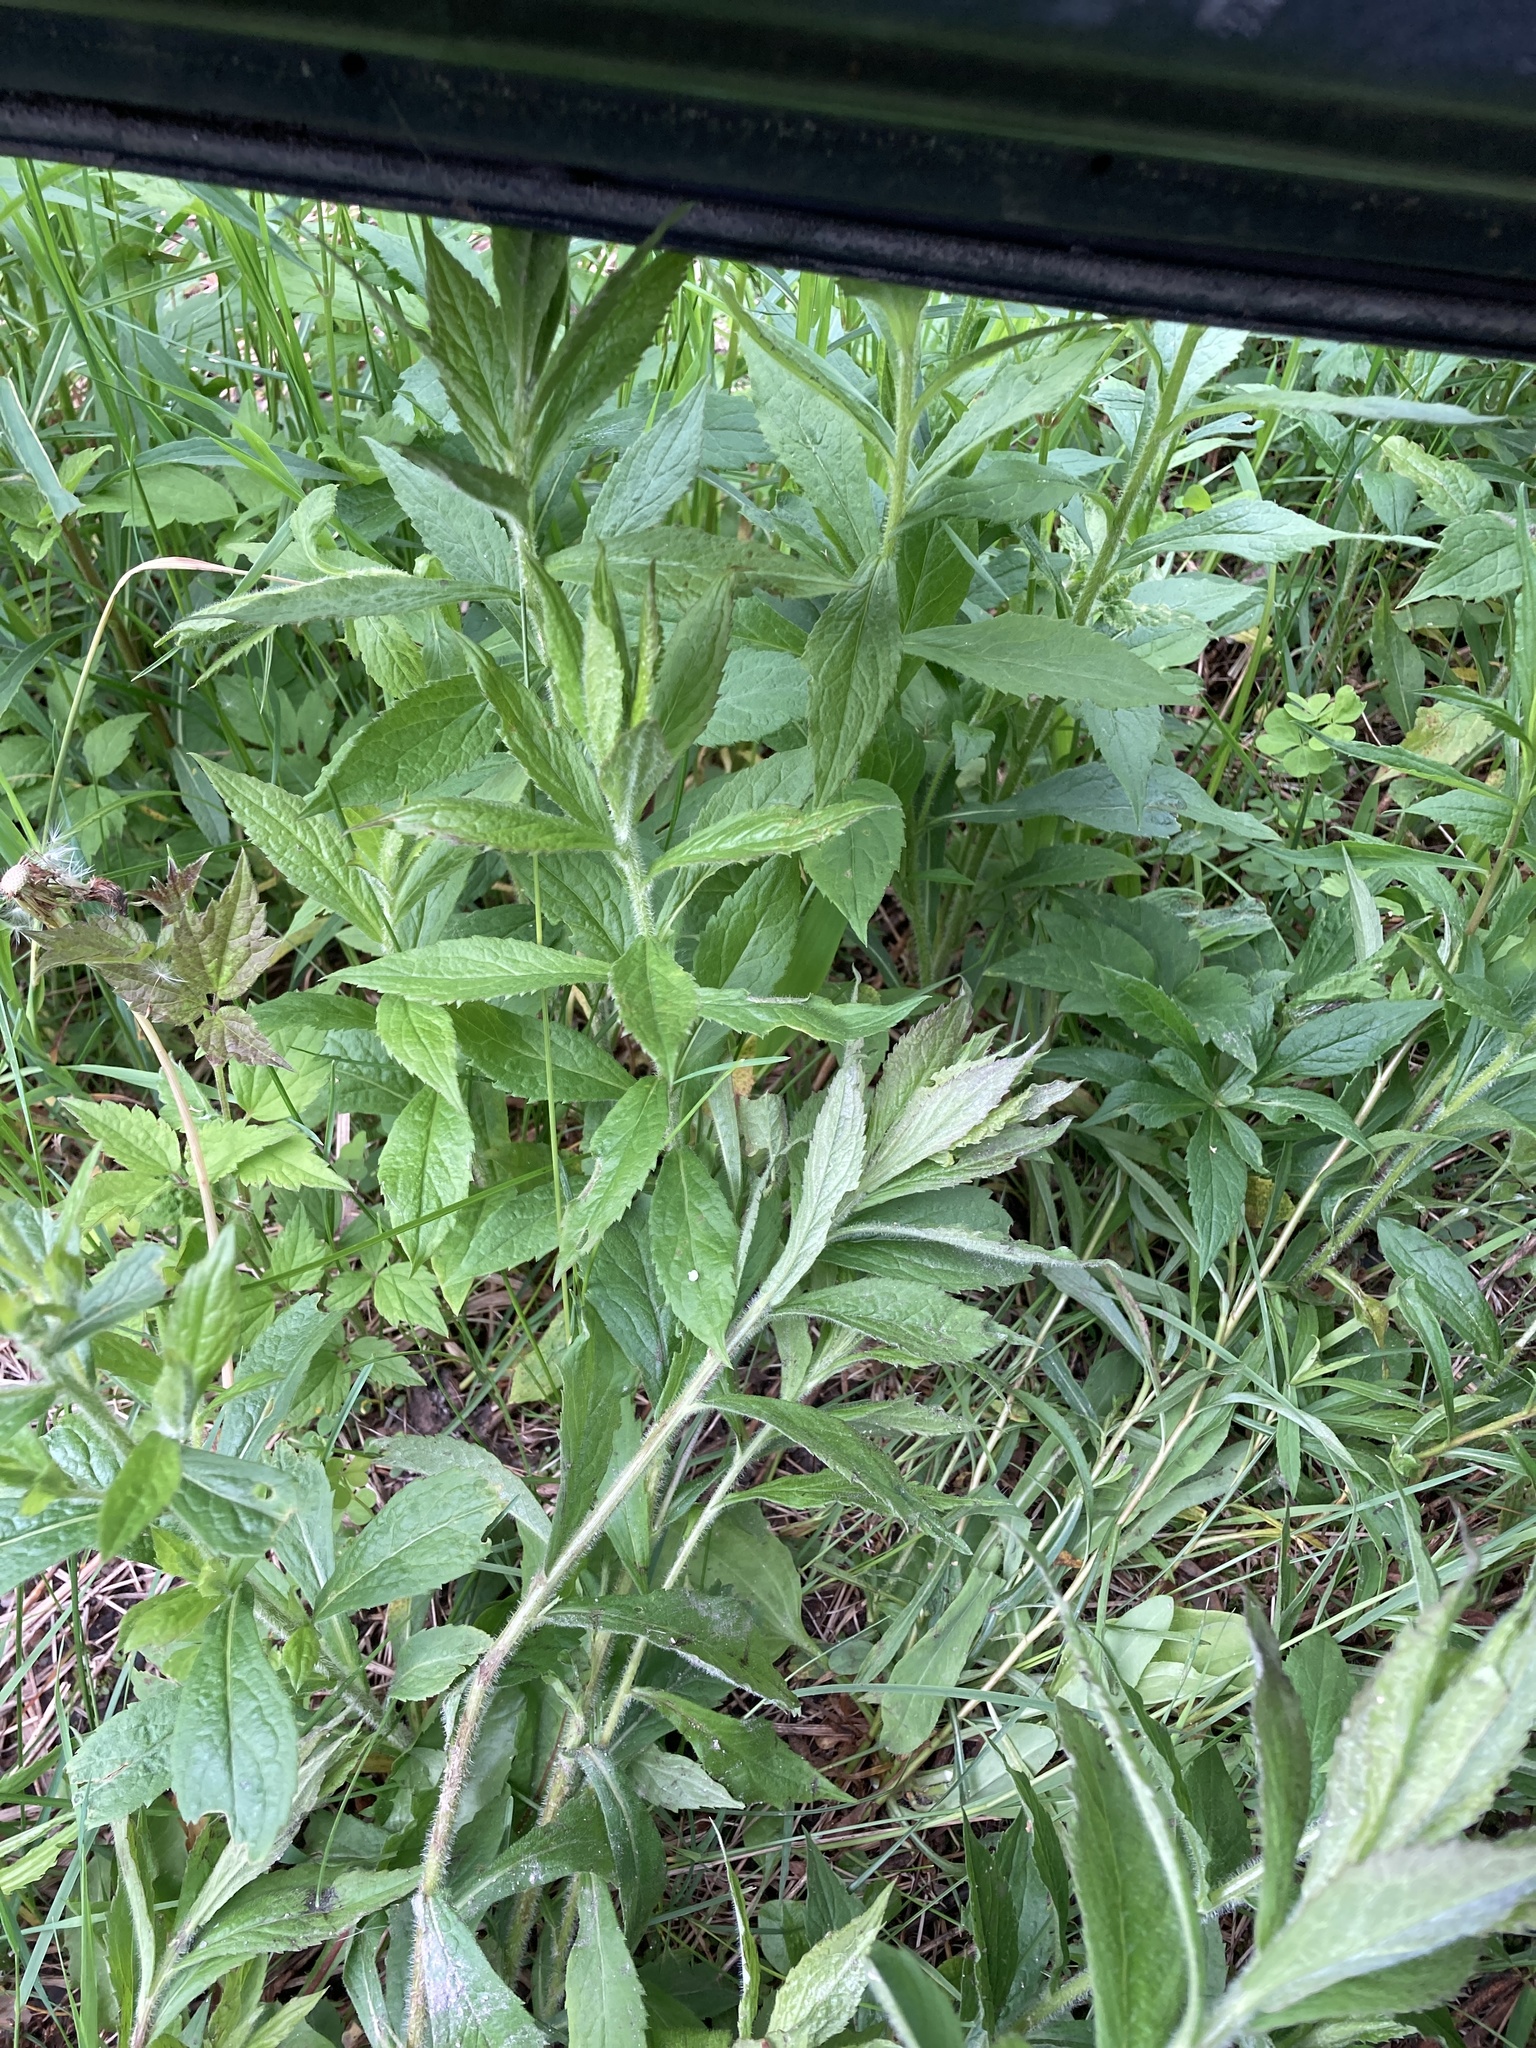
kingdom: Plantae
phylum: Tracheophyta
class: Magnoliopsida
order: Asterales
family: Asteraceae
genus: Solidago
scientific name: Solidago rugosa
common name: Rough-stemmed goldenrod
